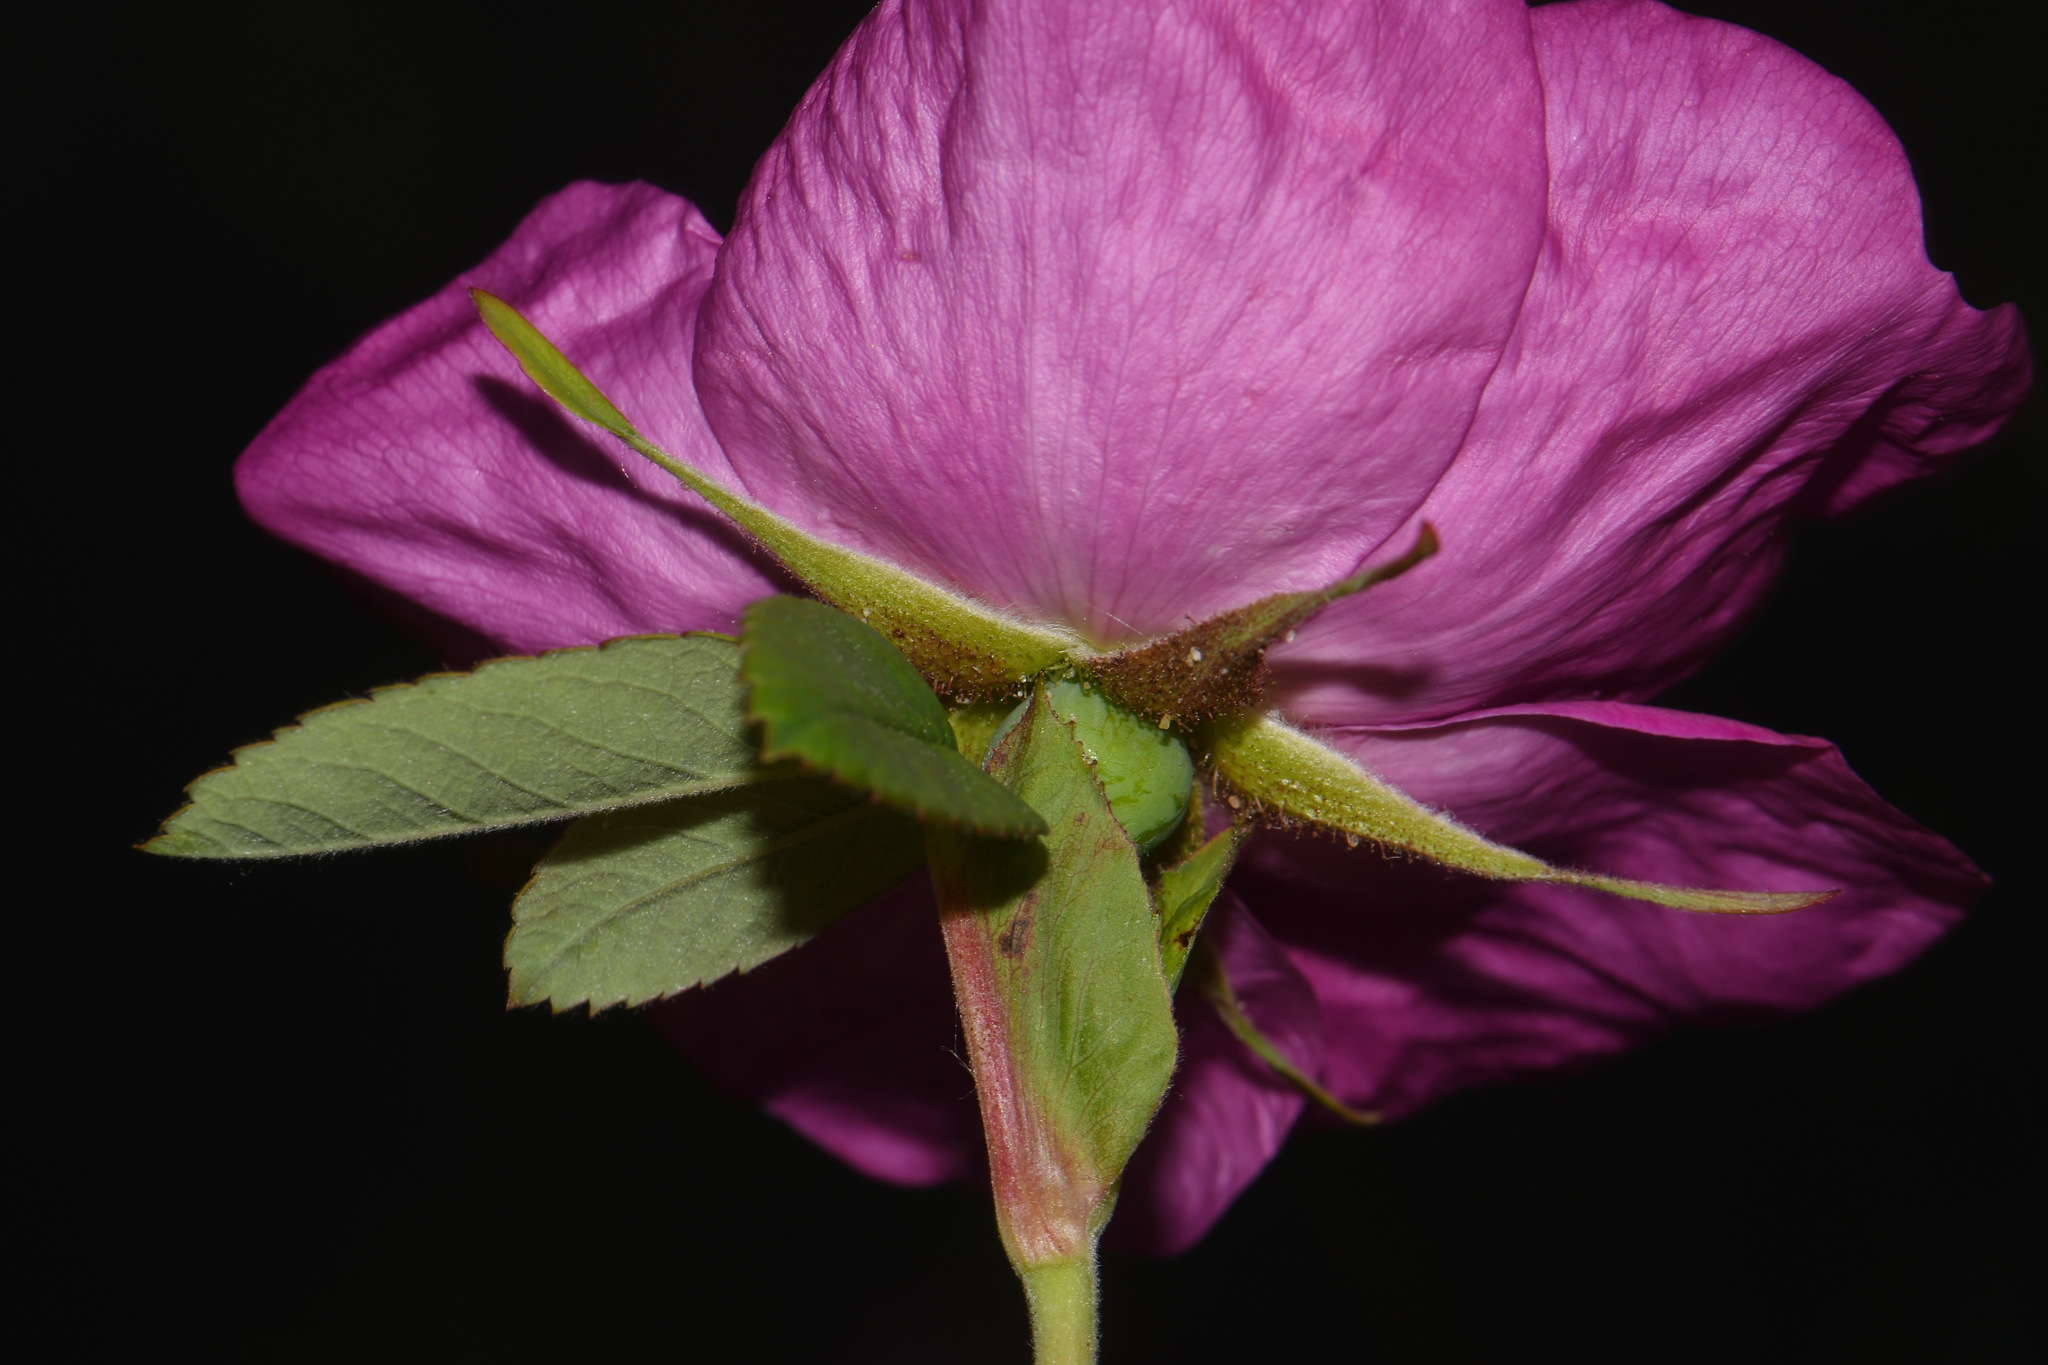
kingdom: Plantae
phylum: Tracheophyta
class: Magnoliopsida
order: Rosales
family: Rosaceae
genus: Rosa
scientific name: Rosa rugosa
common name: Japanese rose
